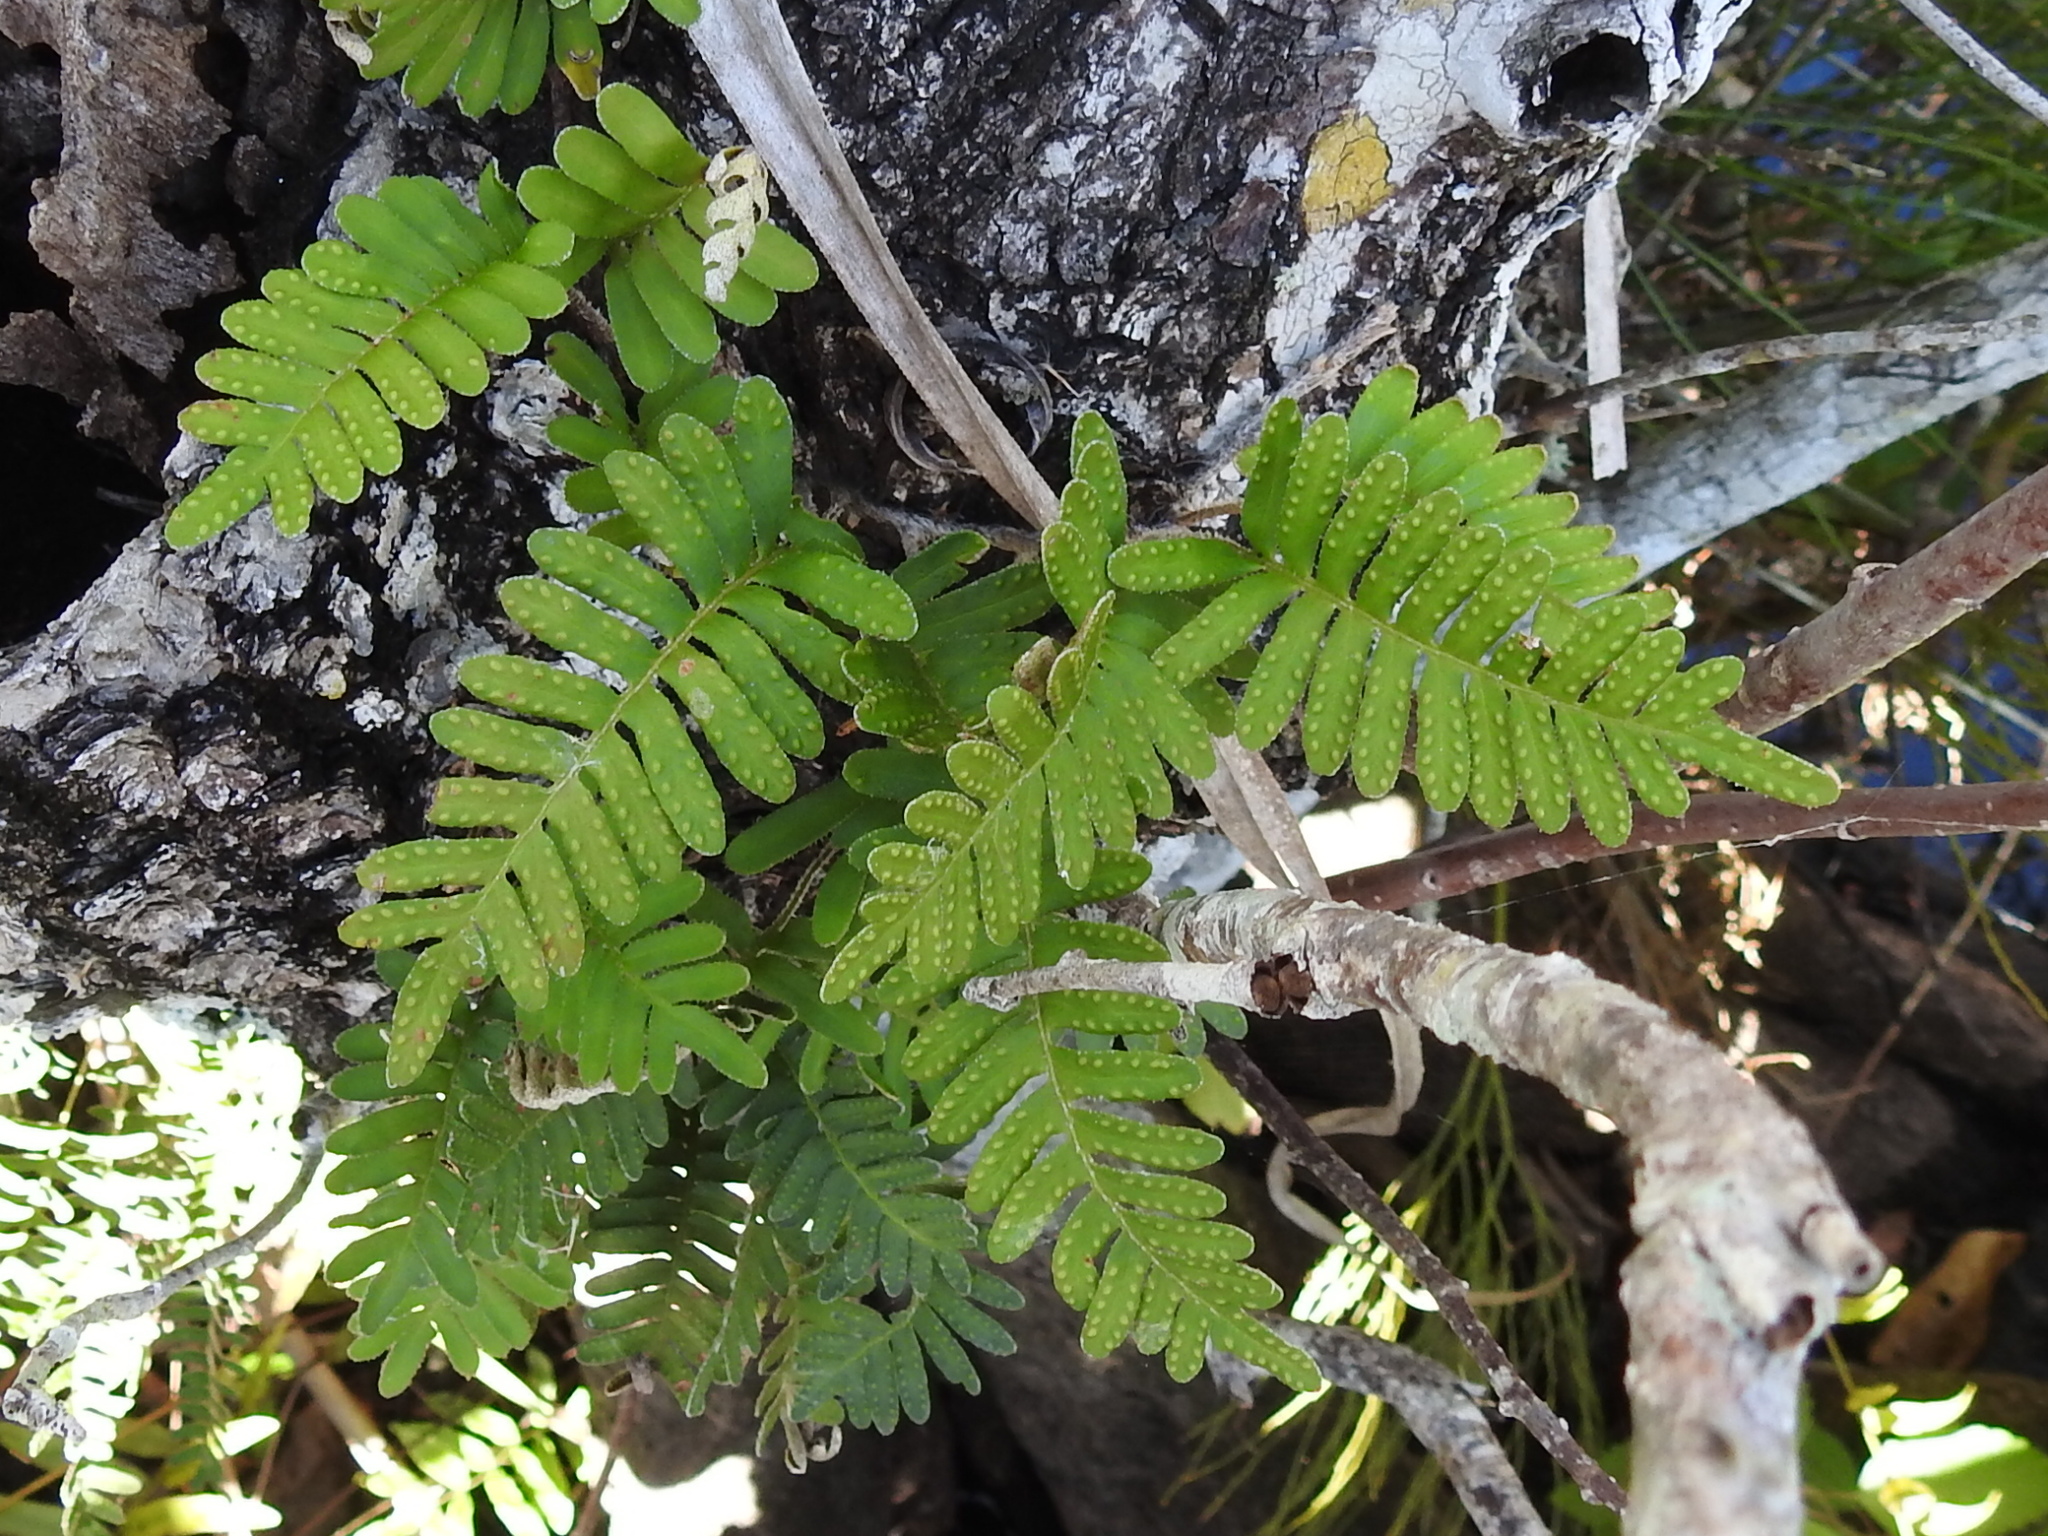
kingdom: Plantae
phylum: Tracheophyta
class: Polypodiopsida
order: Polypodiales
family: Polypodiaceae
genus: Pleopeltis
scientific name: Pleopeltis michauxiana
